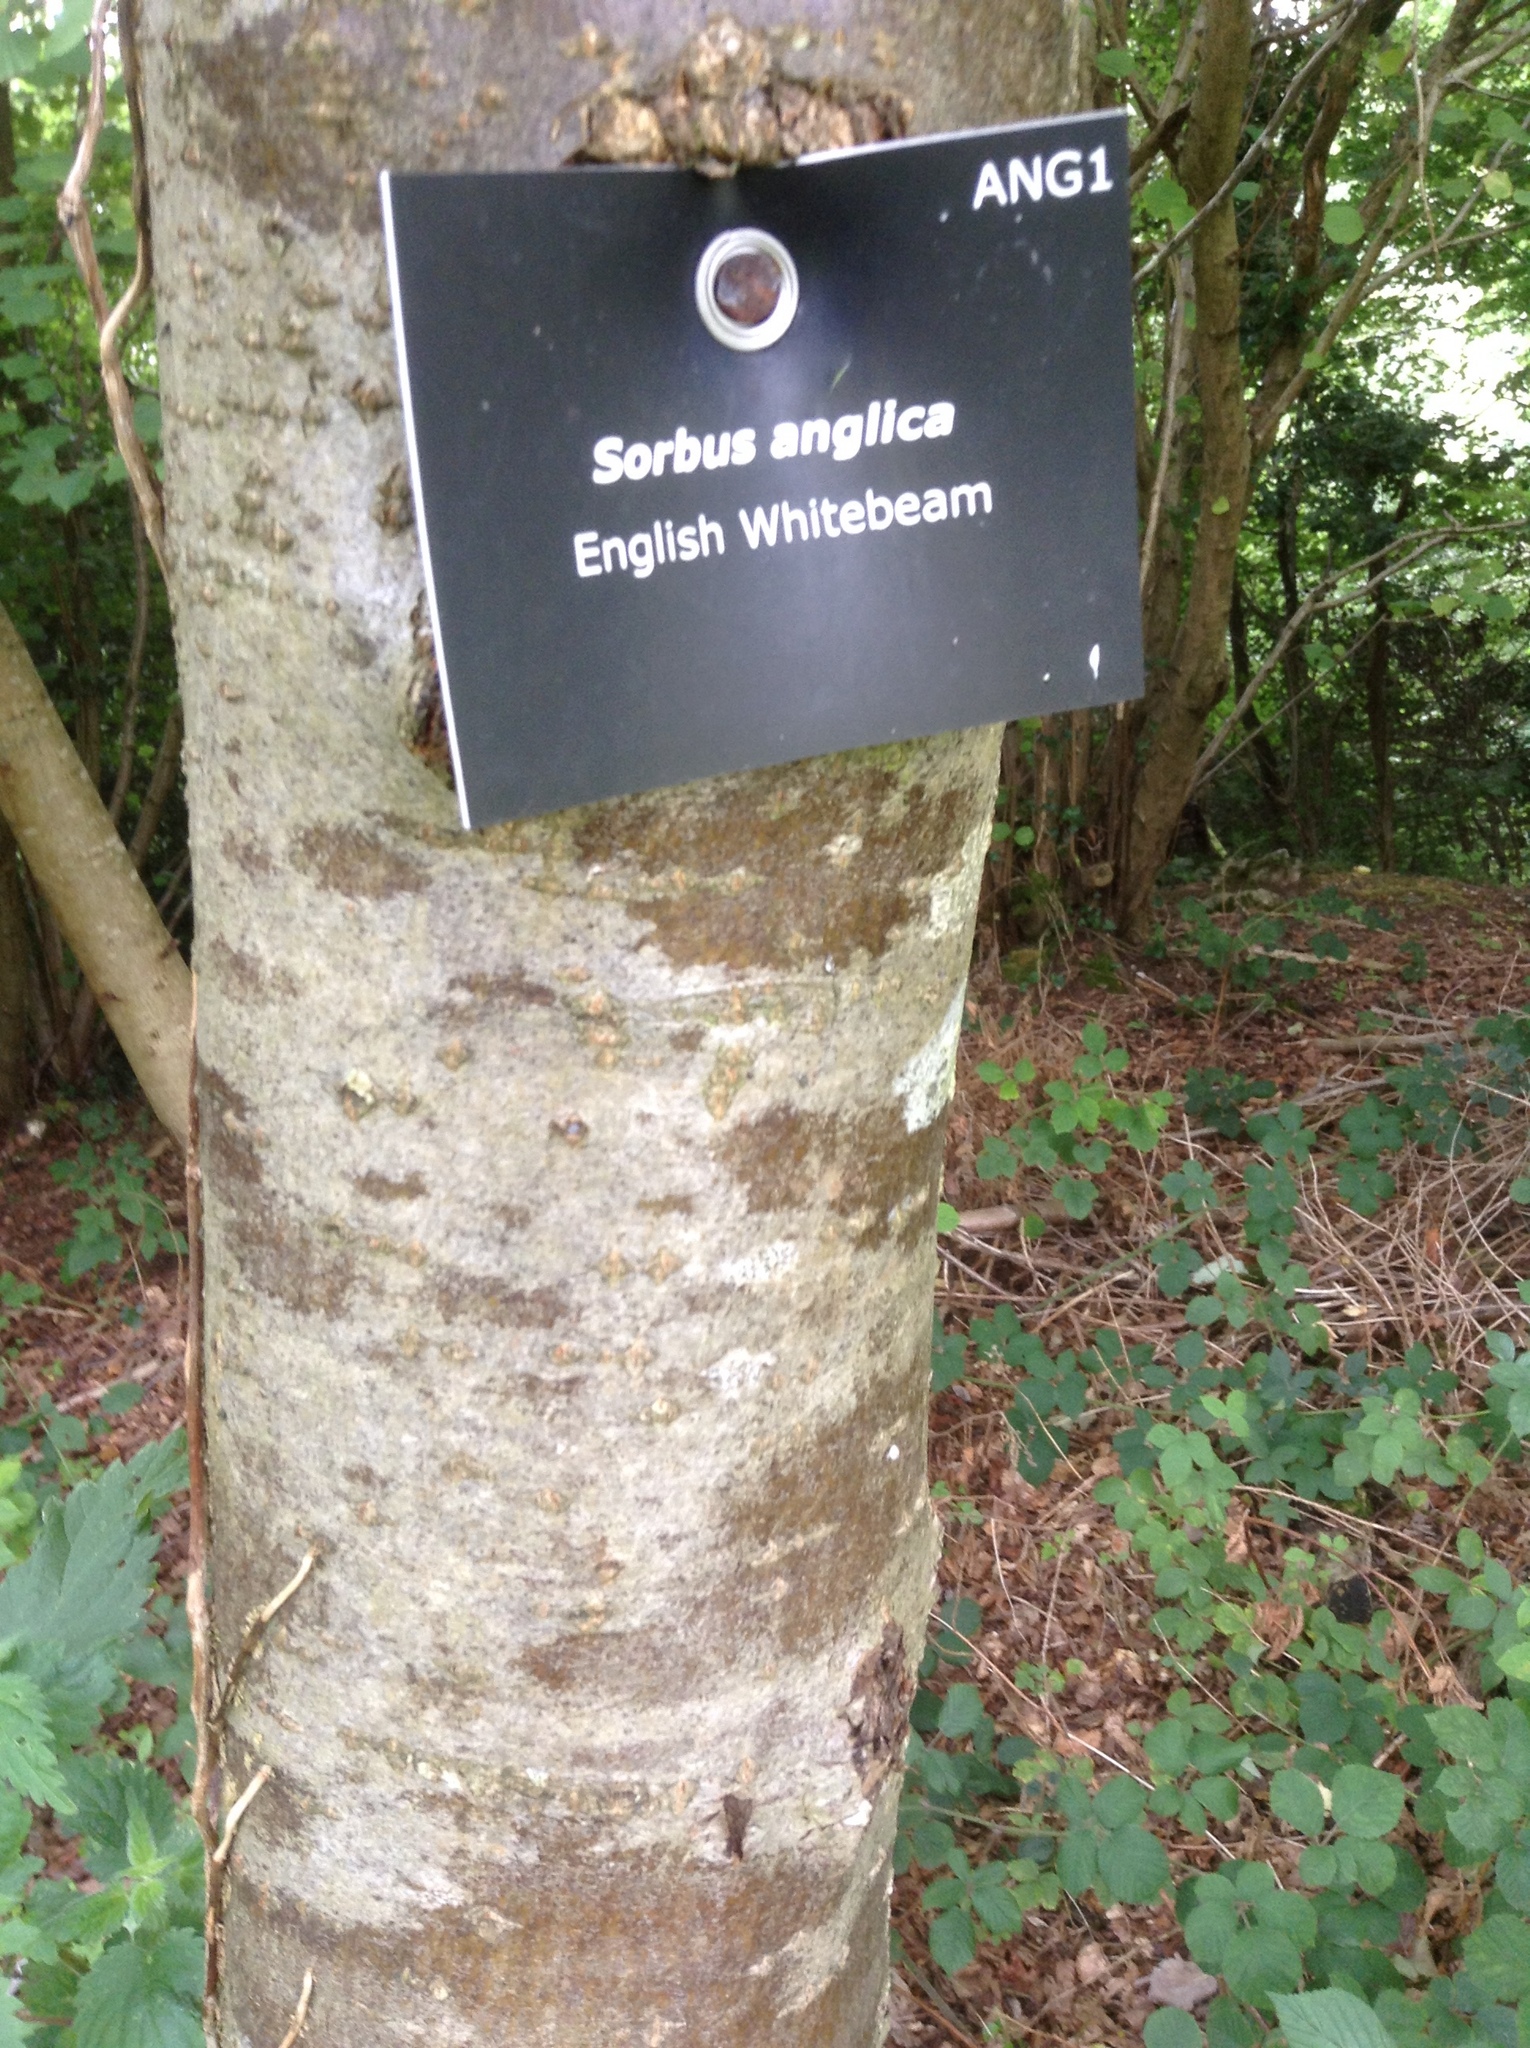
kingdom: Plantae
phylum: Tracheophyta
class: Magnoliopsida
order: Rosales
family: Rosaceae
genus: Hedlundia
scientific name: Hedlundia anglica
